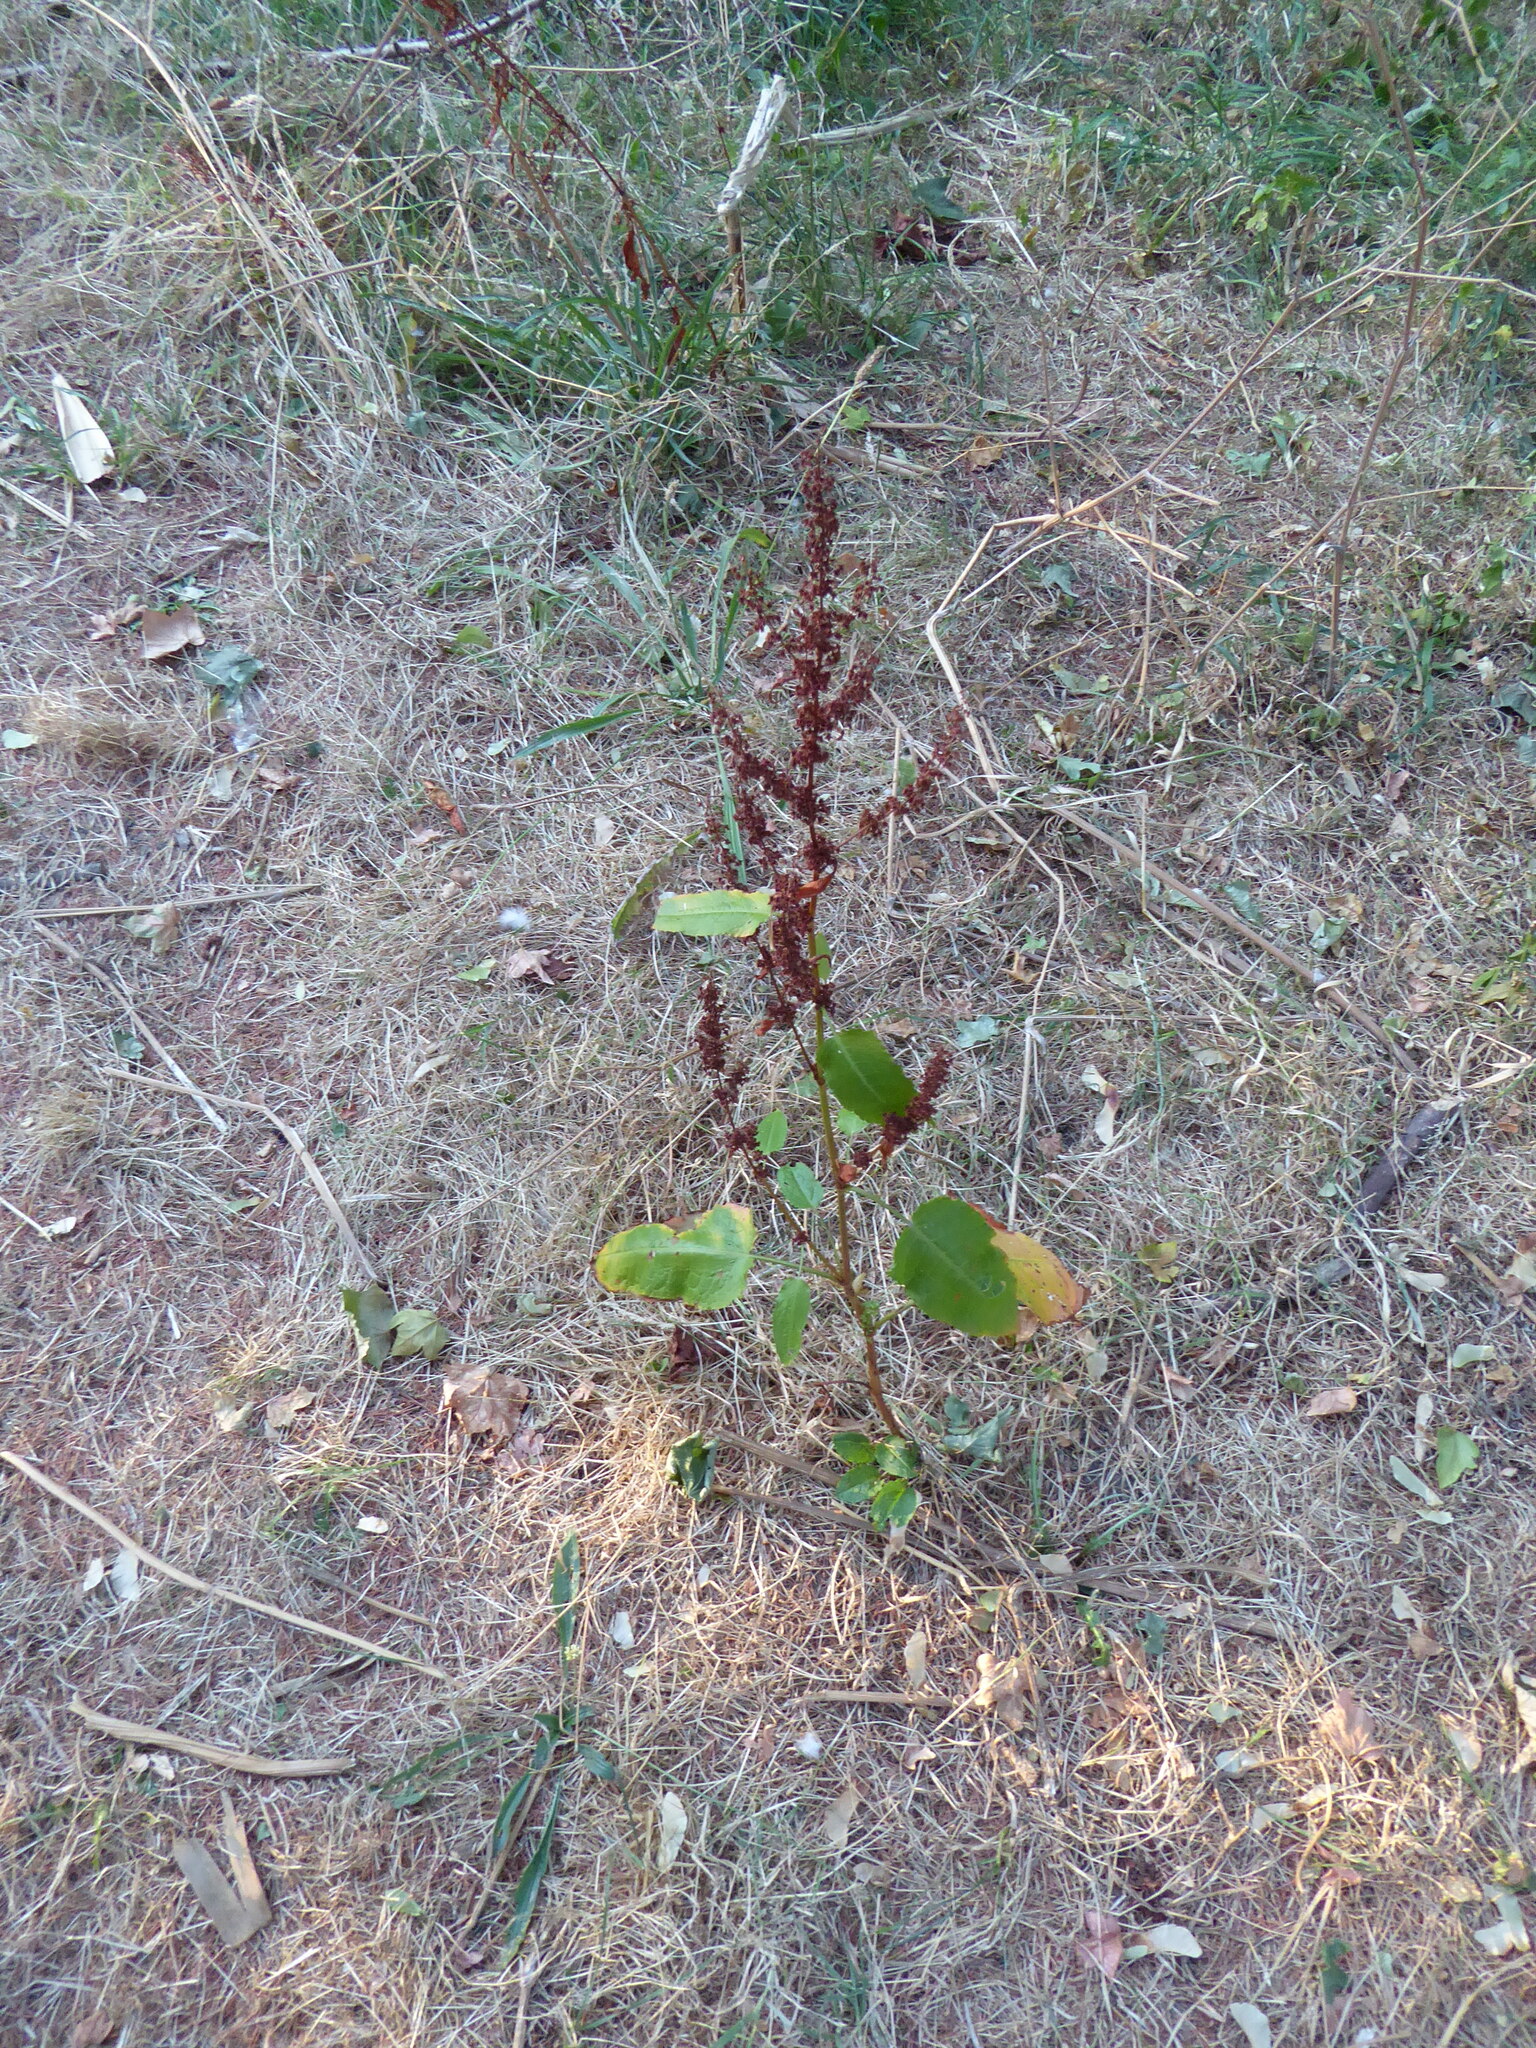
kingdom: Plantae
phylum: Tracheophyta
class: Magnoliopsida
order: Caryophyllales
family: Polygonaceae
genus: Rumex
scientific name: Rumex obtusifolius
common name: Bitter dock
